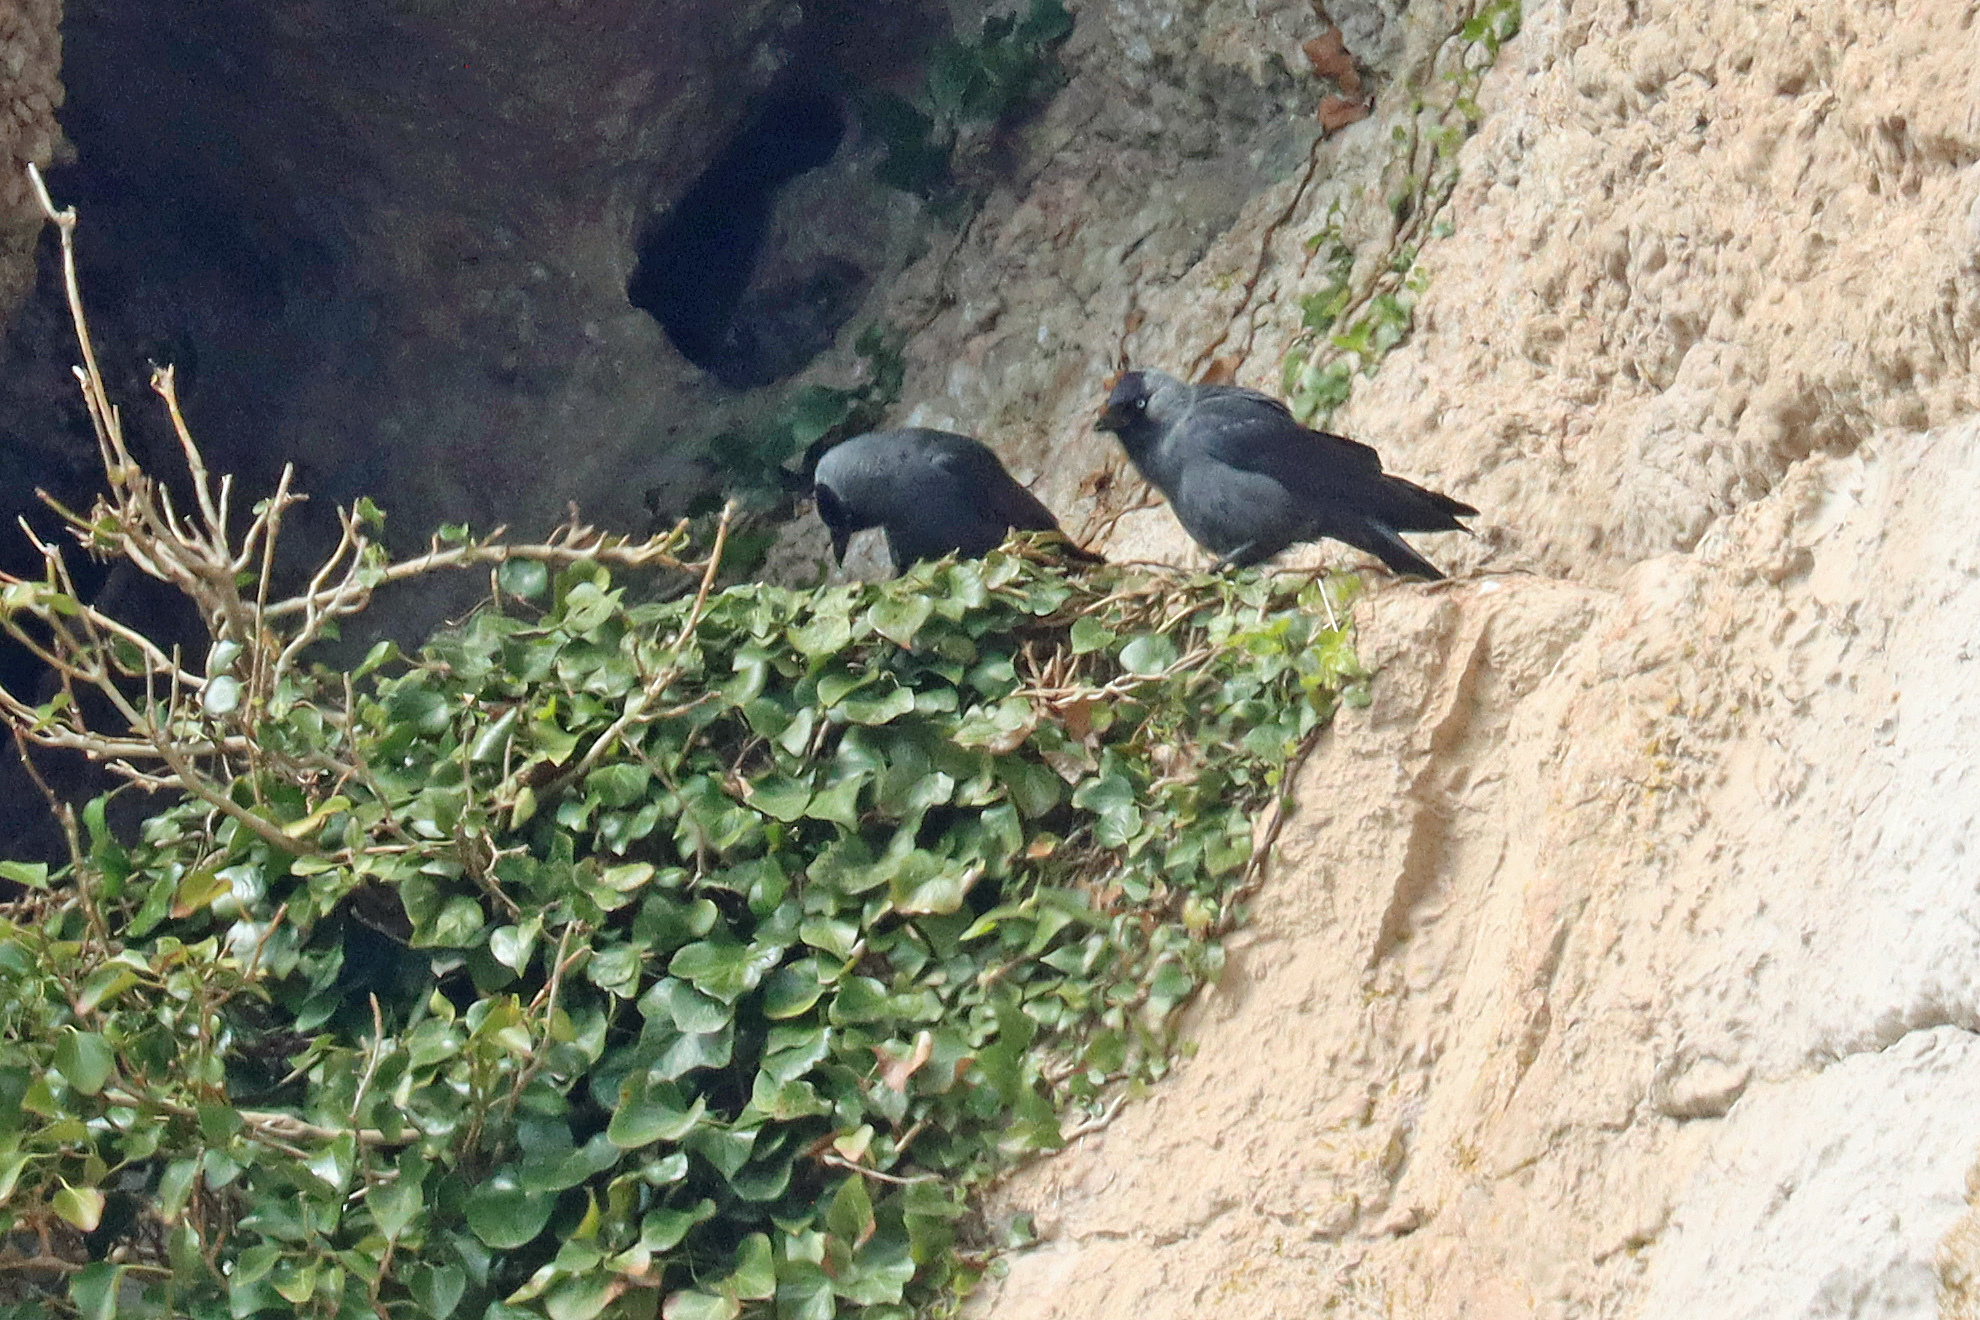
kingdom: Animalia
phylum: Chordata
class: Aves
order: Passeriformes
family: Corvidae
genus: Coloeus
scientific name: Coloeus monedula
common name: Western jackdaw
